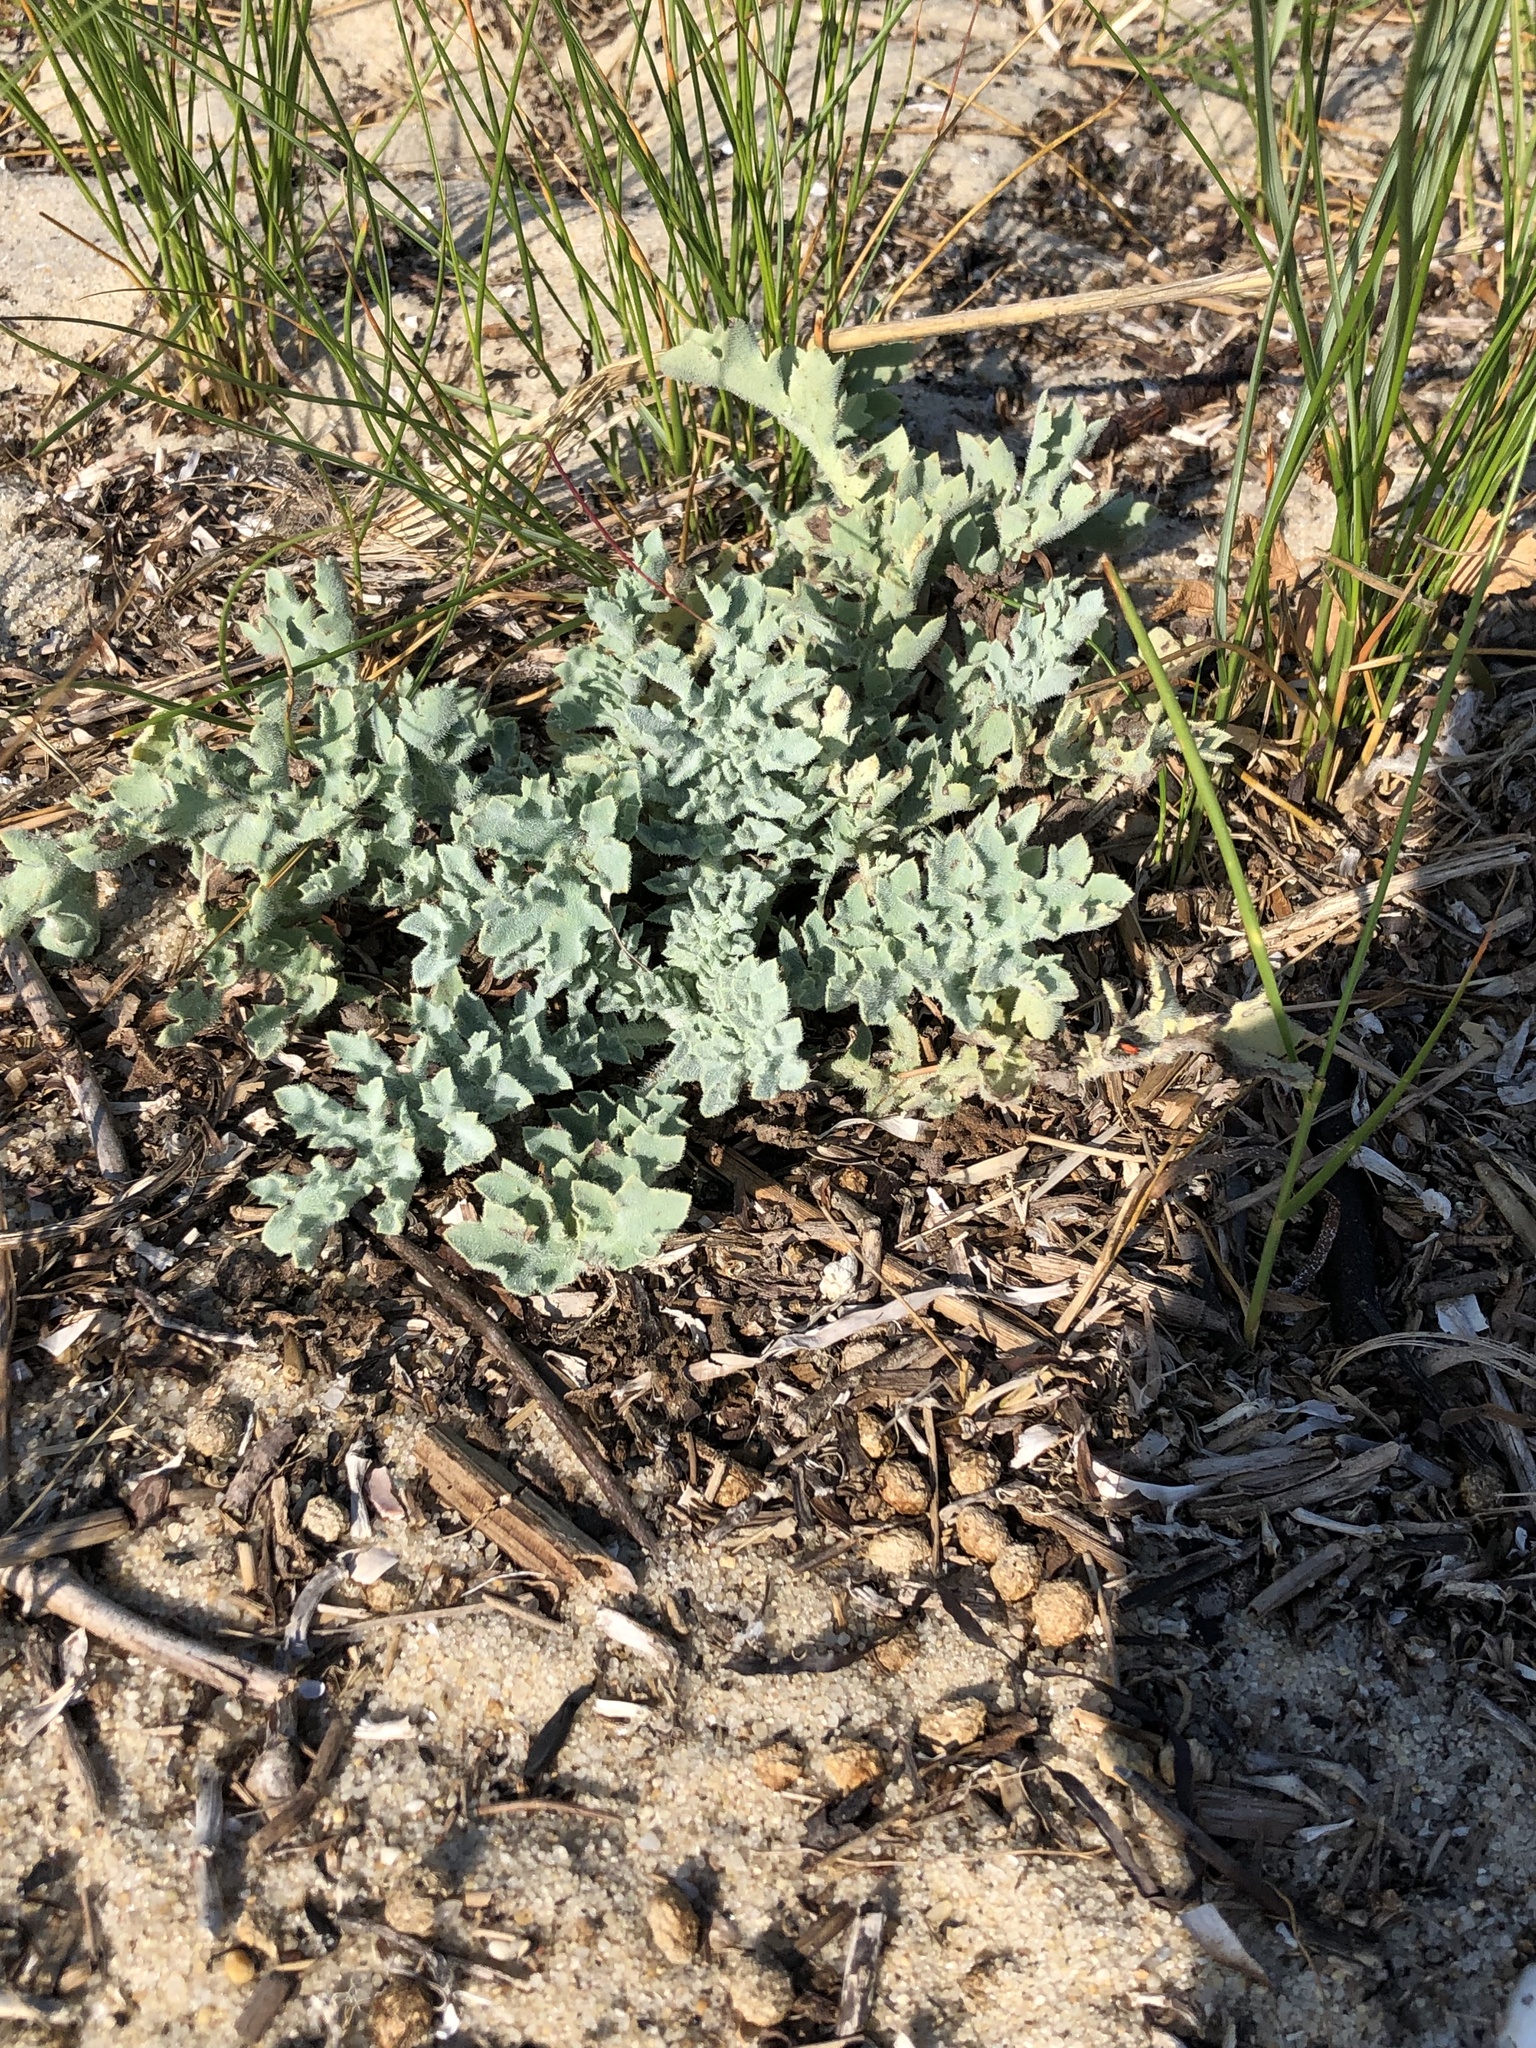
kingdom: Plantae
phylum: Tracheophyta
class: Magnoliopsida
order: Ranunculales
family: Papaveraceae
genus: Glaucium
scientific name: Glaucium flavum
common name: Yellow horned-poppy
